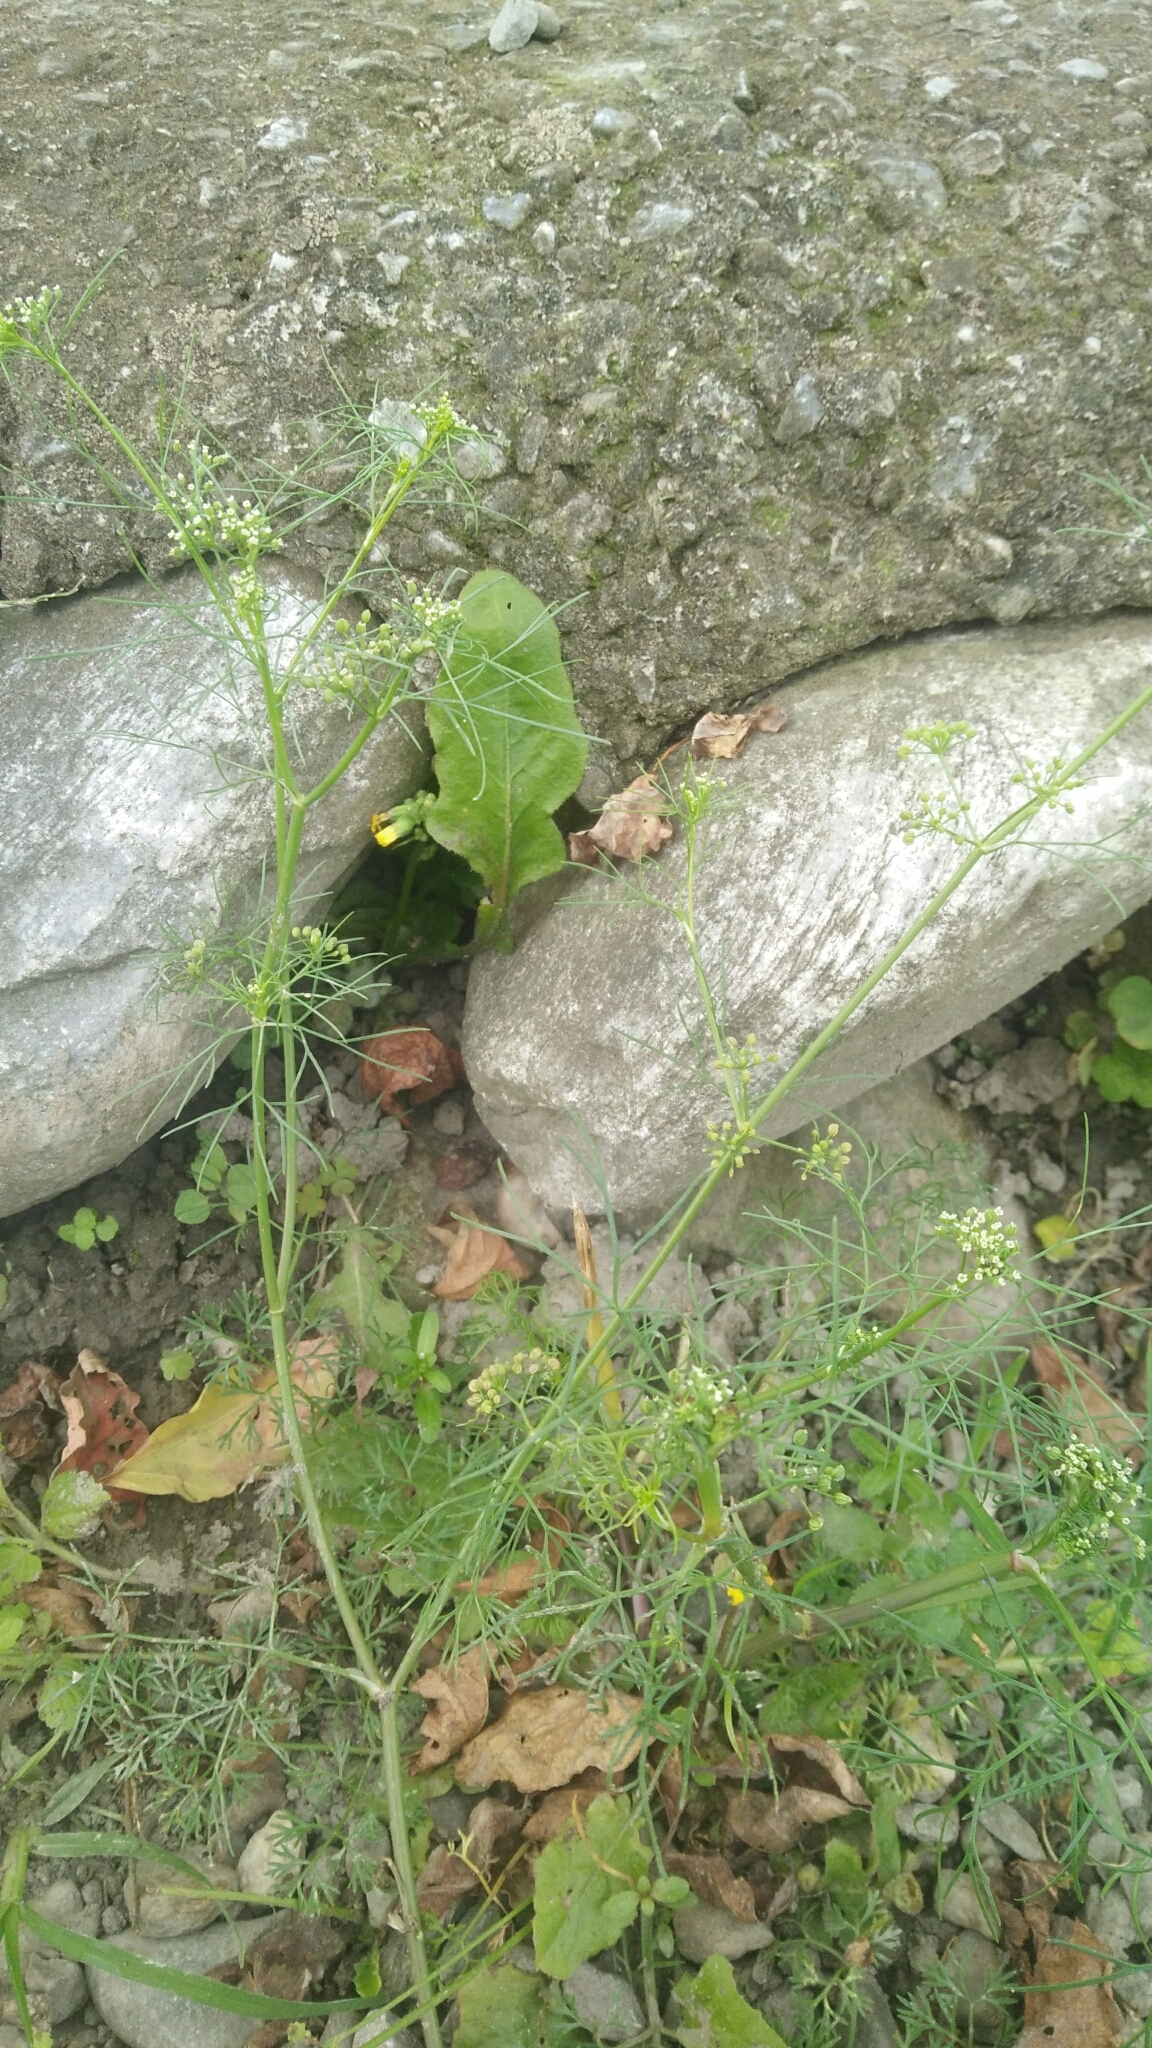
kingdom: Plantae
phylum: Tracheophyta
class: Magnoliopsida
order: Apiales
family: Apiaceae
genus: Cyclospermum
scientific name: Cyclospermum leptophyllum
